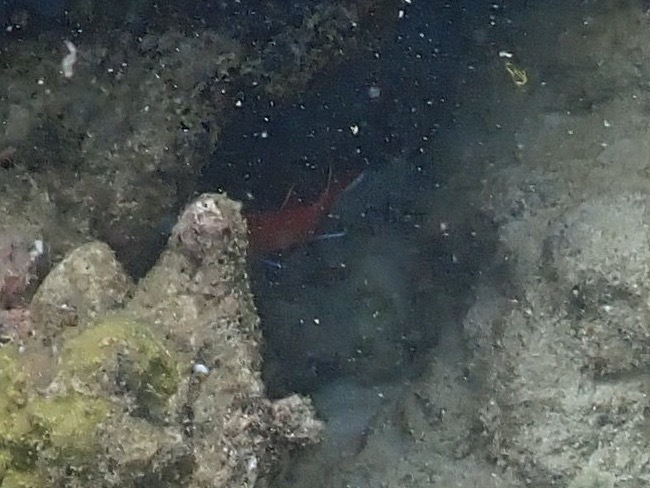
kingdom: Animalia
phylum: Chordata
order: Beryciformes
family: Holocentridae
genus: Myripristis
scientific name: Myripristis jacobus
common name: Blackbar soldierfish
